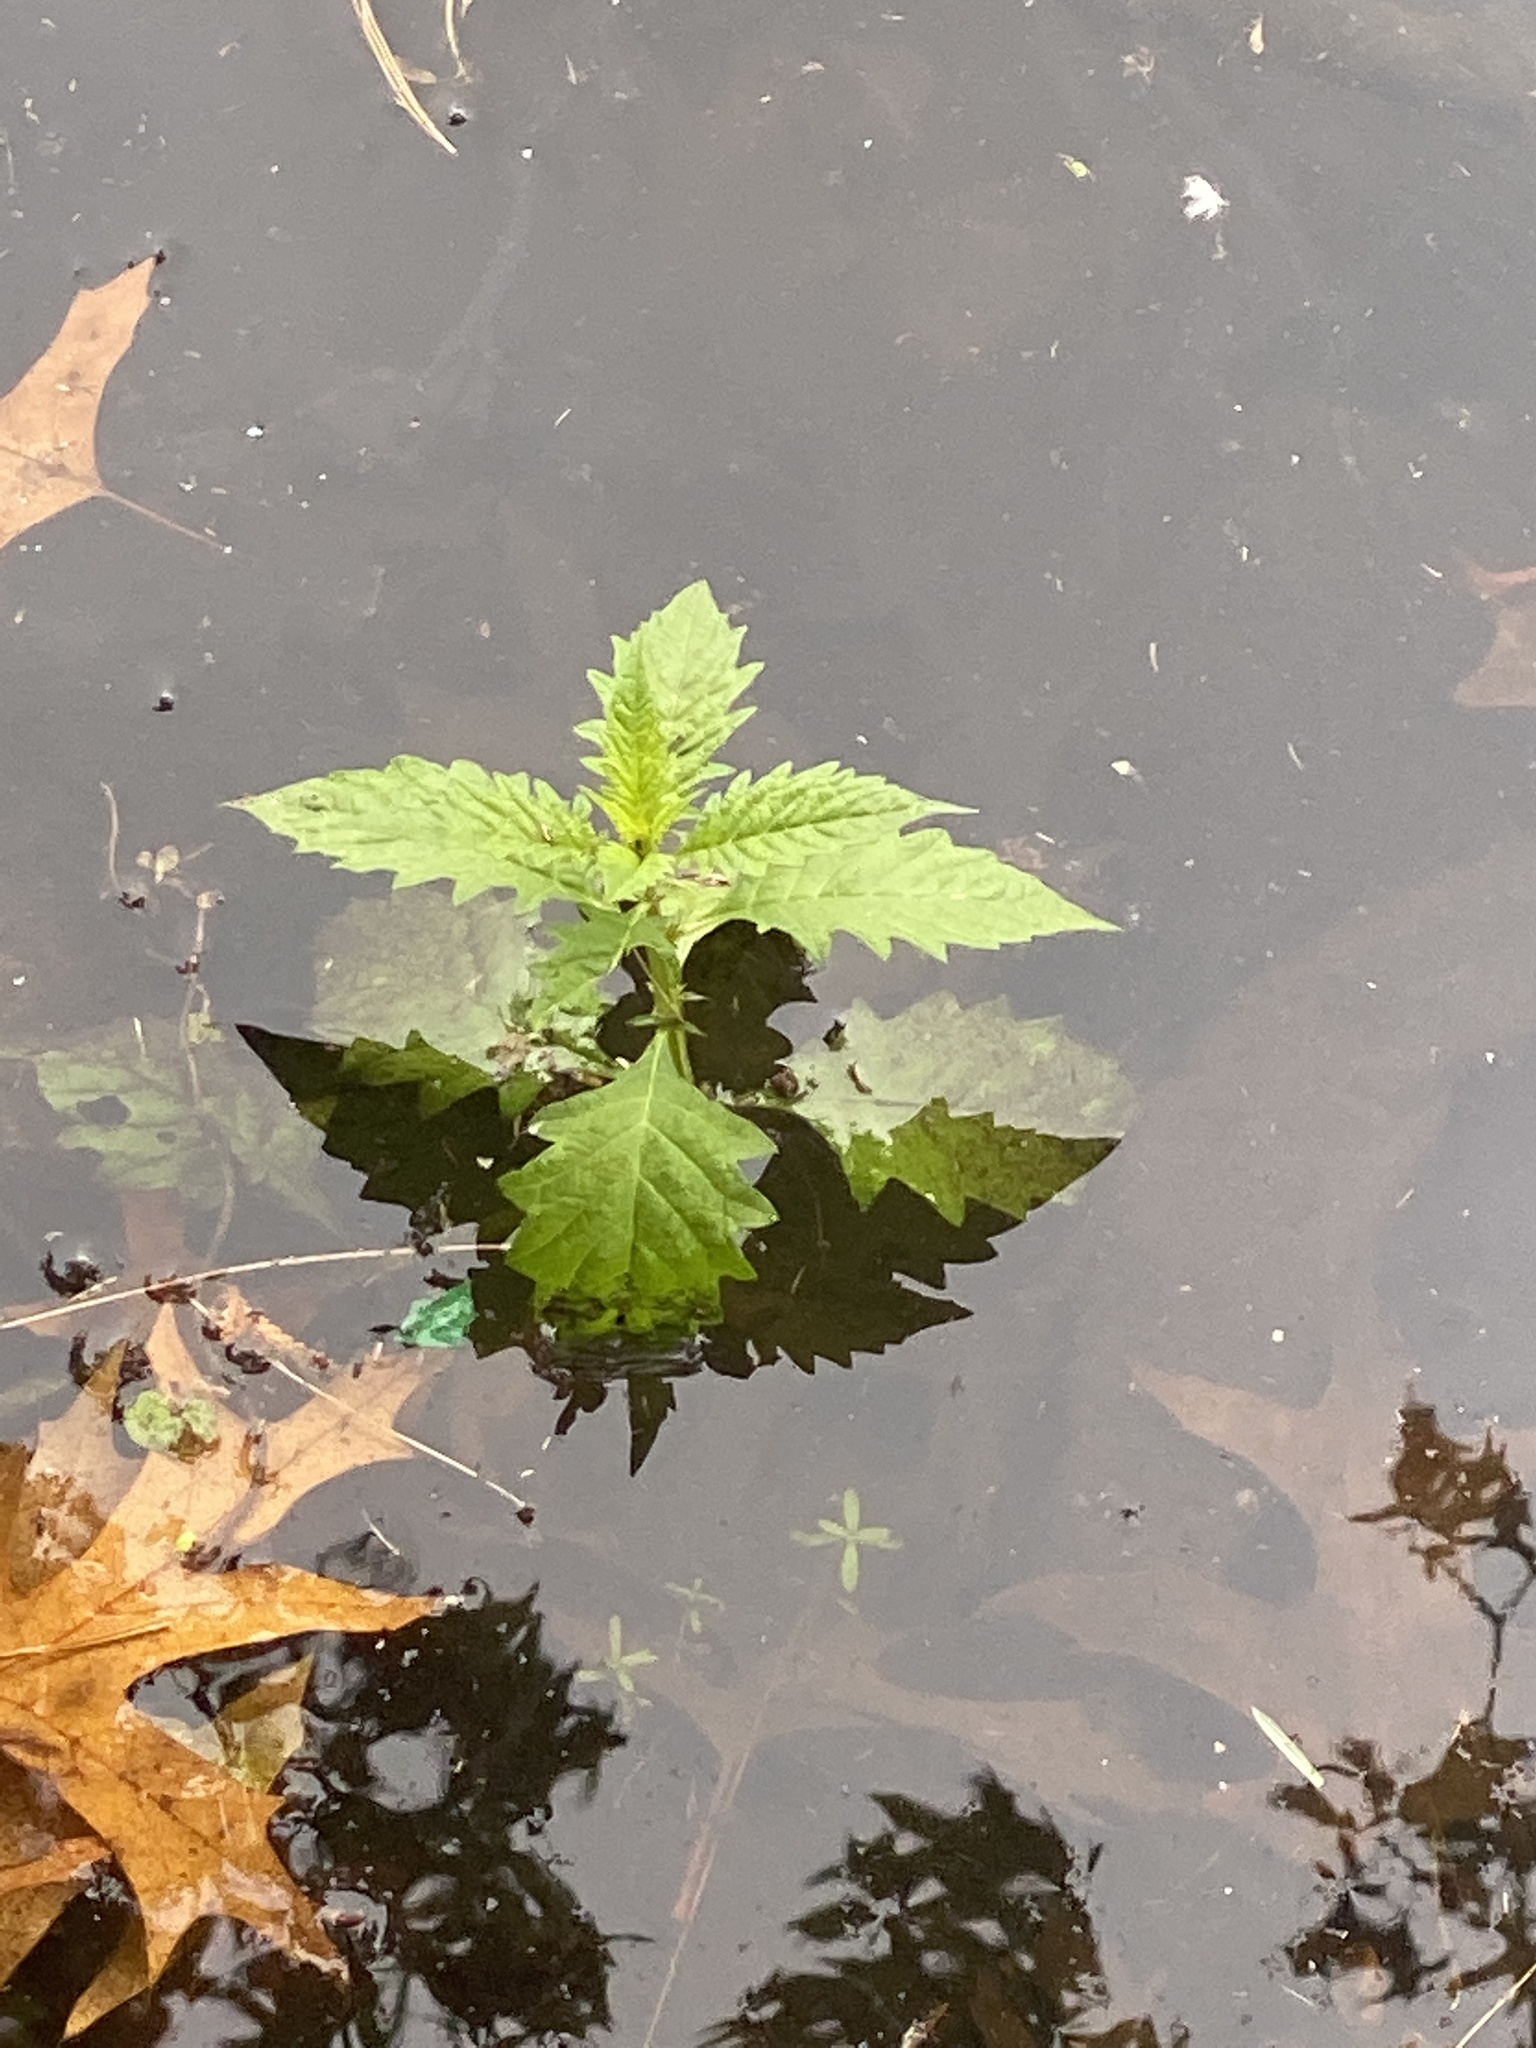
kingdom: Plantae
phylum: Tracheophyta
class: Magnoliopsida
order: Lamiales
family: Lamiaceae
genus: Lycopus
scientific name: Lycopus europaeus
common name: European bugleweed
